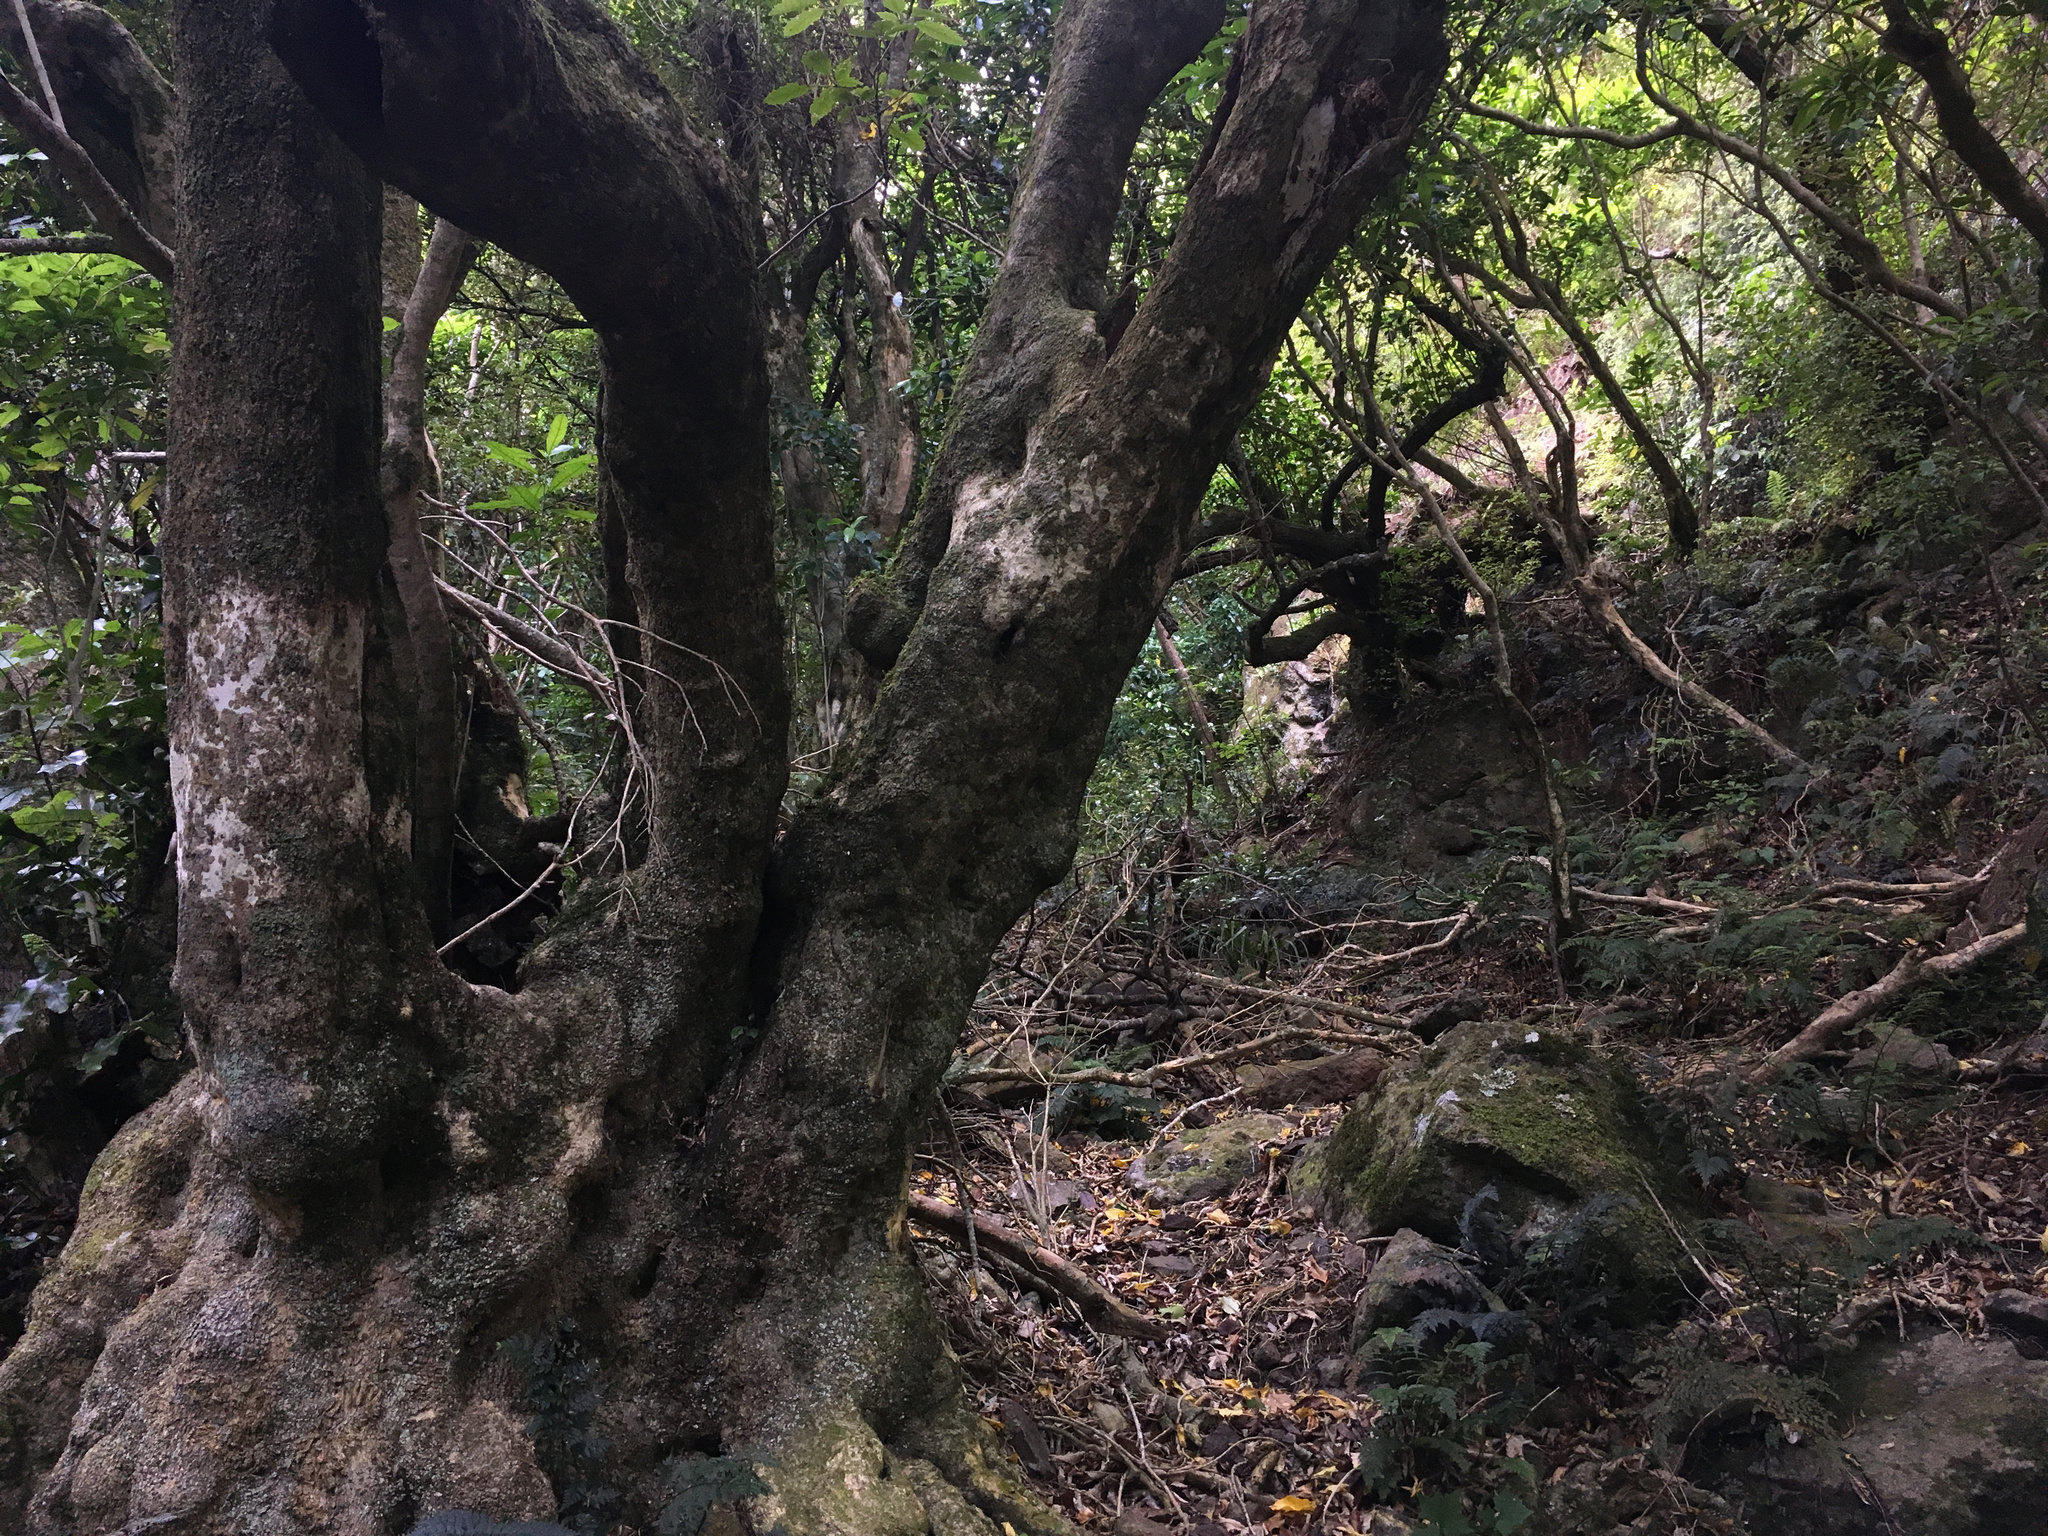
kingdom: Plantae
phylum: Tracheophyta
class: Magnoliopsida
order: Malpighiales
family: Violaceae
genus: Melicytus
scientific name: Melicytus ramiflorus
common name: Mahoe
